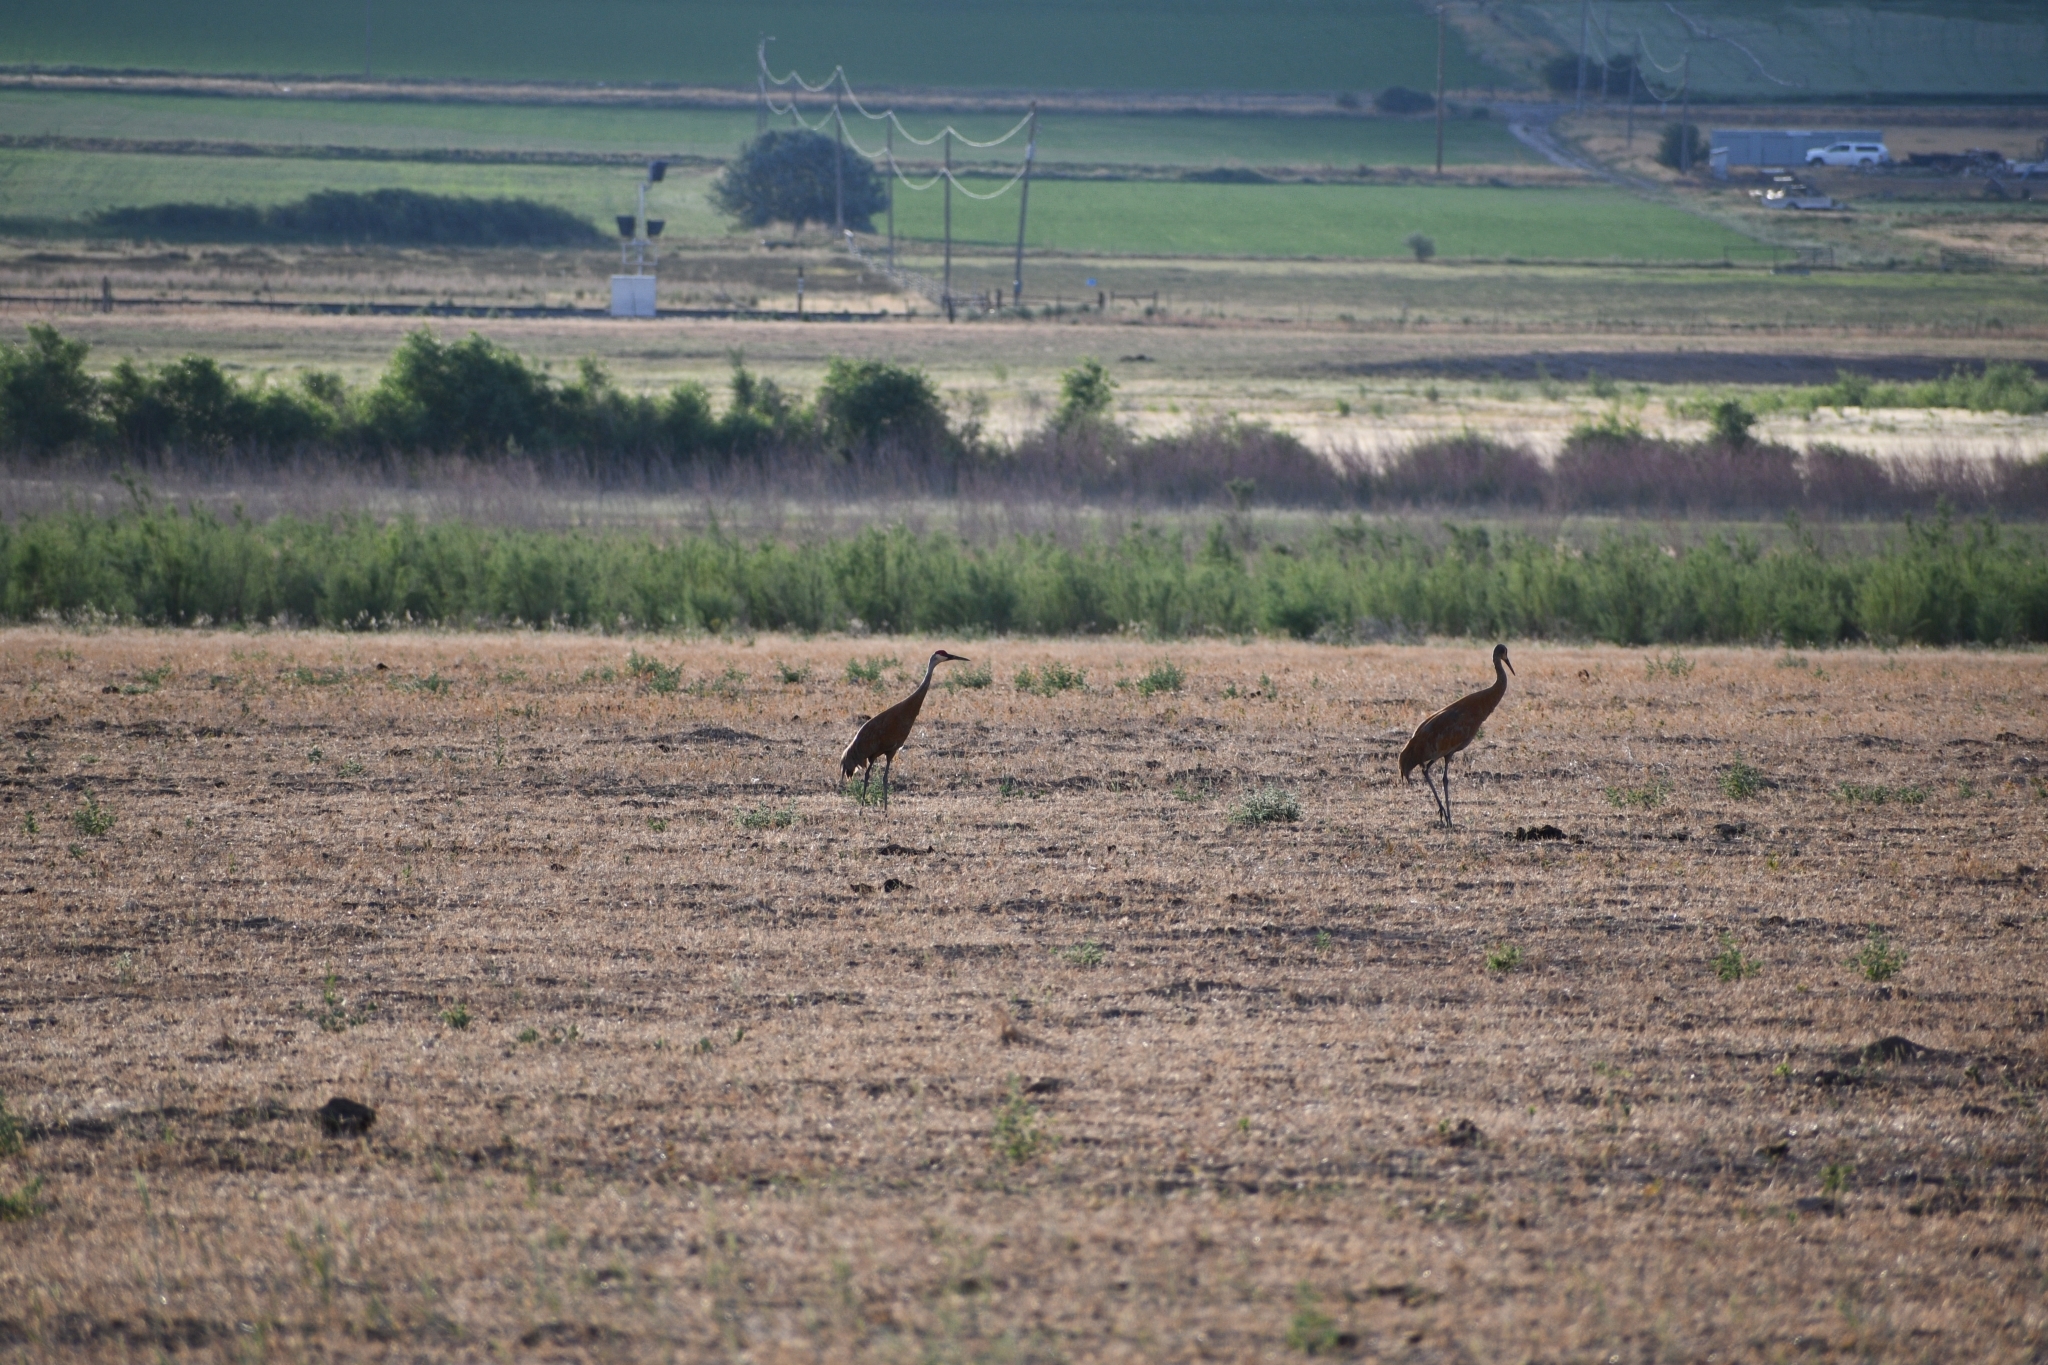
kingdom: Animalia
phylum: Chordata
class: Aves
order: Gruiformes
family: Gruidae
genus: Grus
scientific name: Grus canadensis
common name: Sandhill crane
